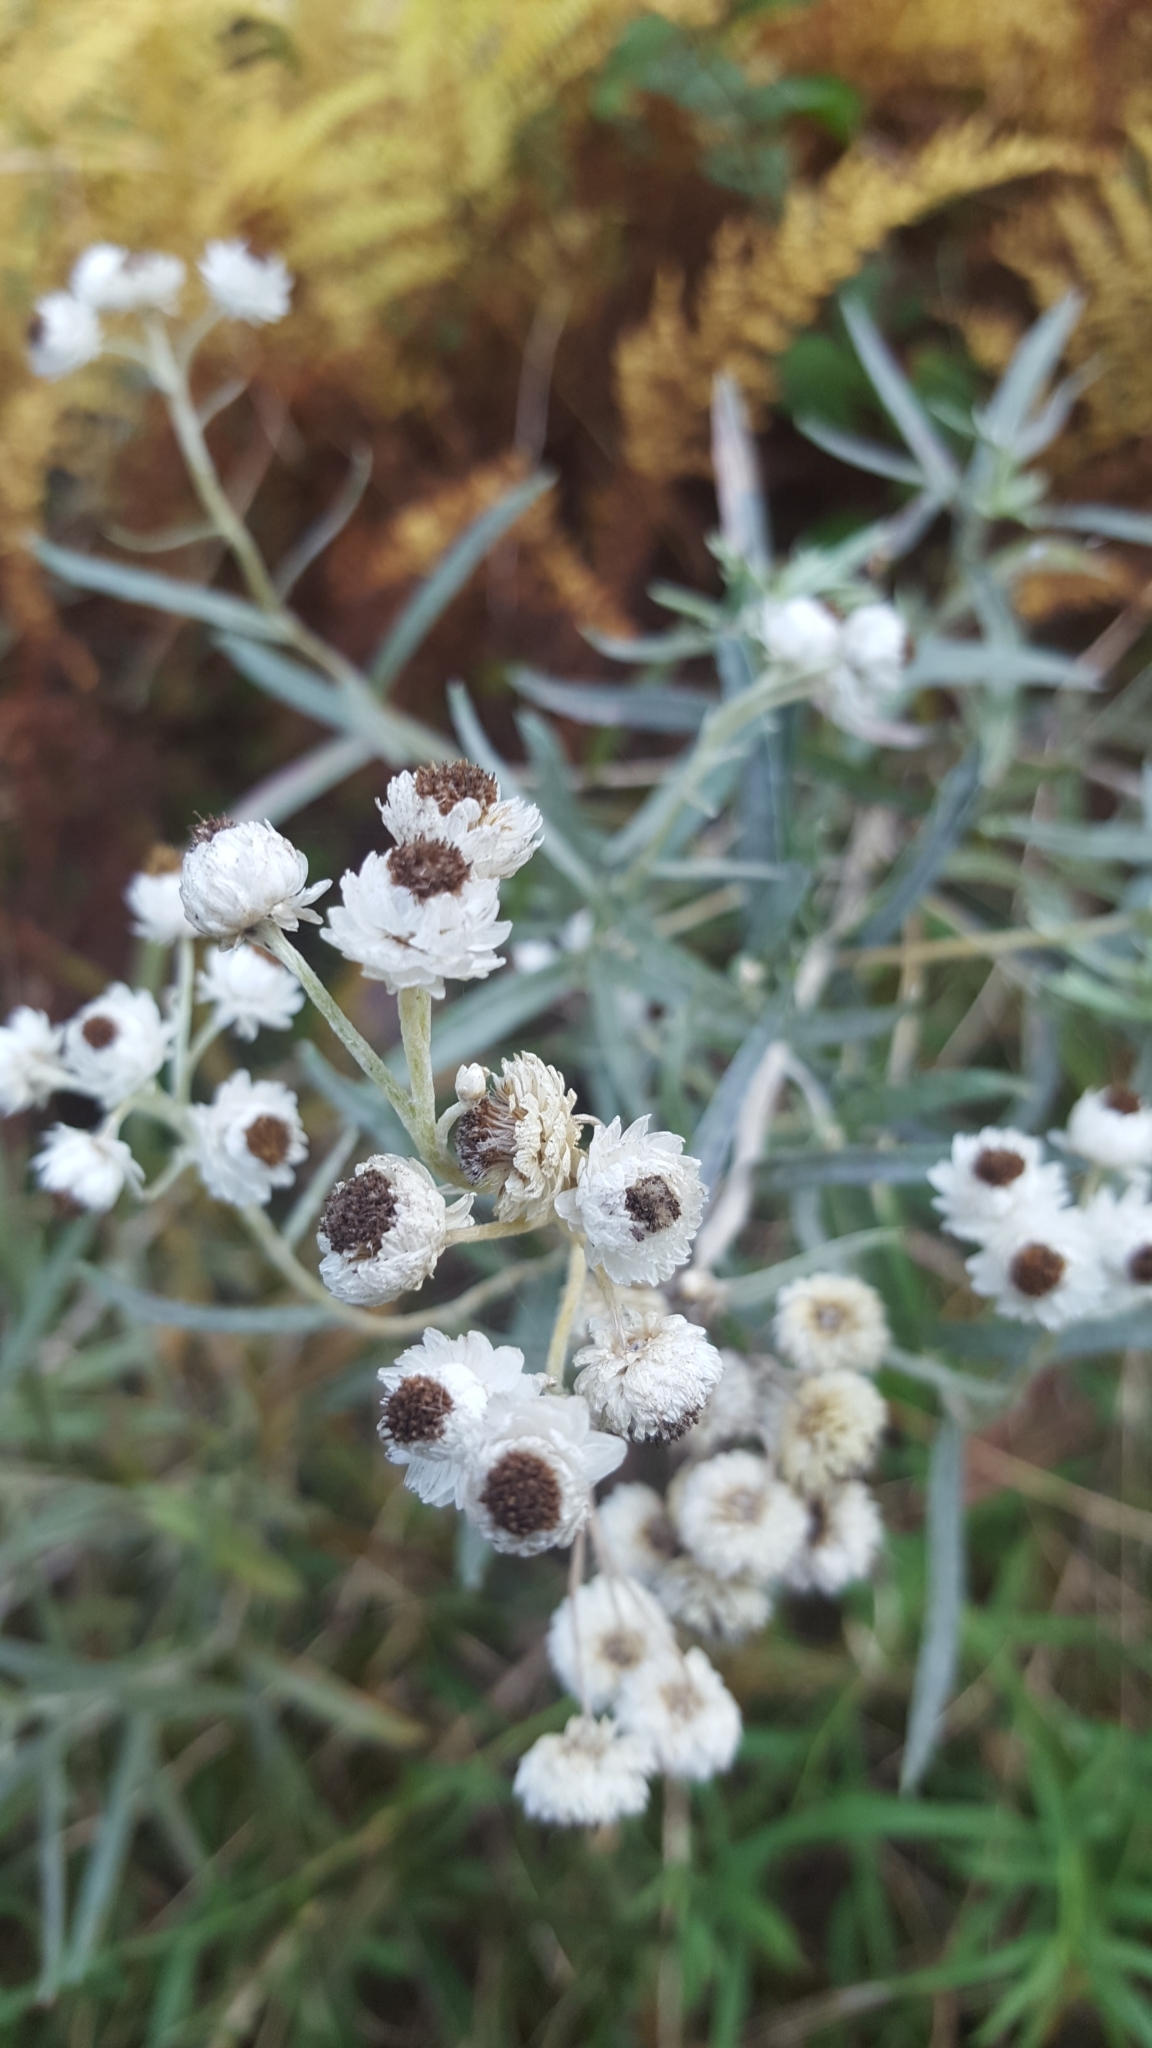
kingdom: Plantae
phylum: Tracheophyta
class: Magnoliopsida
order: Asterales
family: Asteraceae
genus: Anaphalis
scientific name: Anaphalis margaritacea
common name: Pearly everlasting
